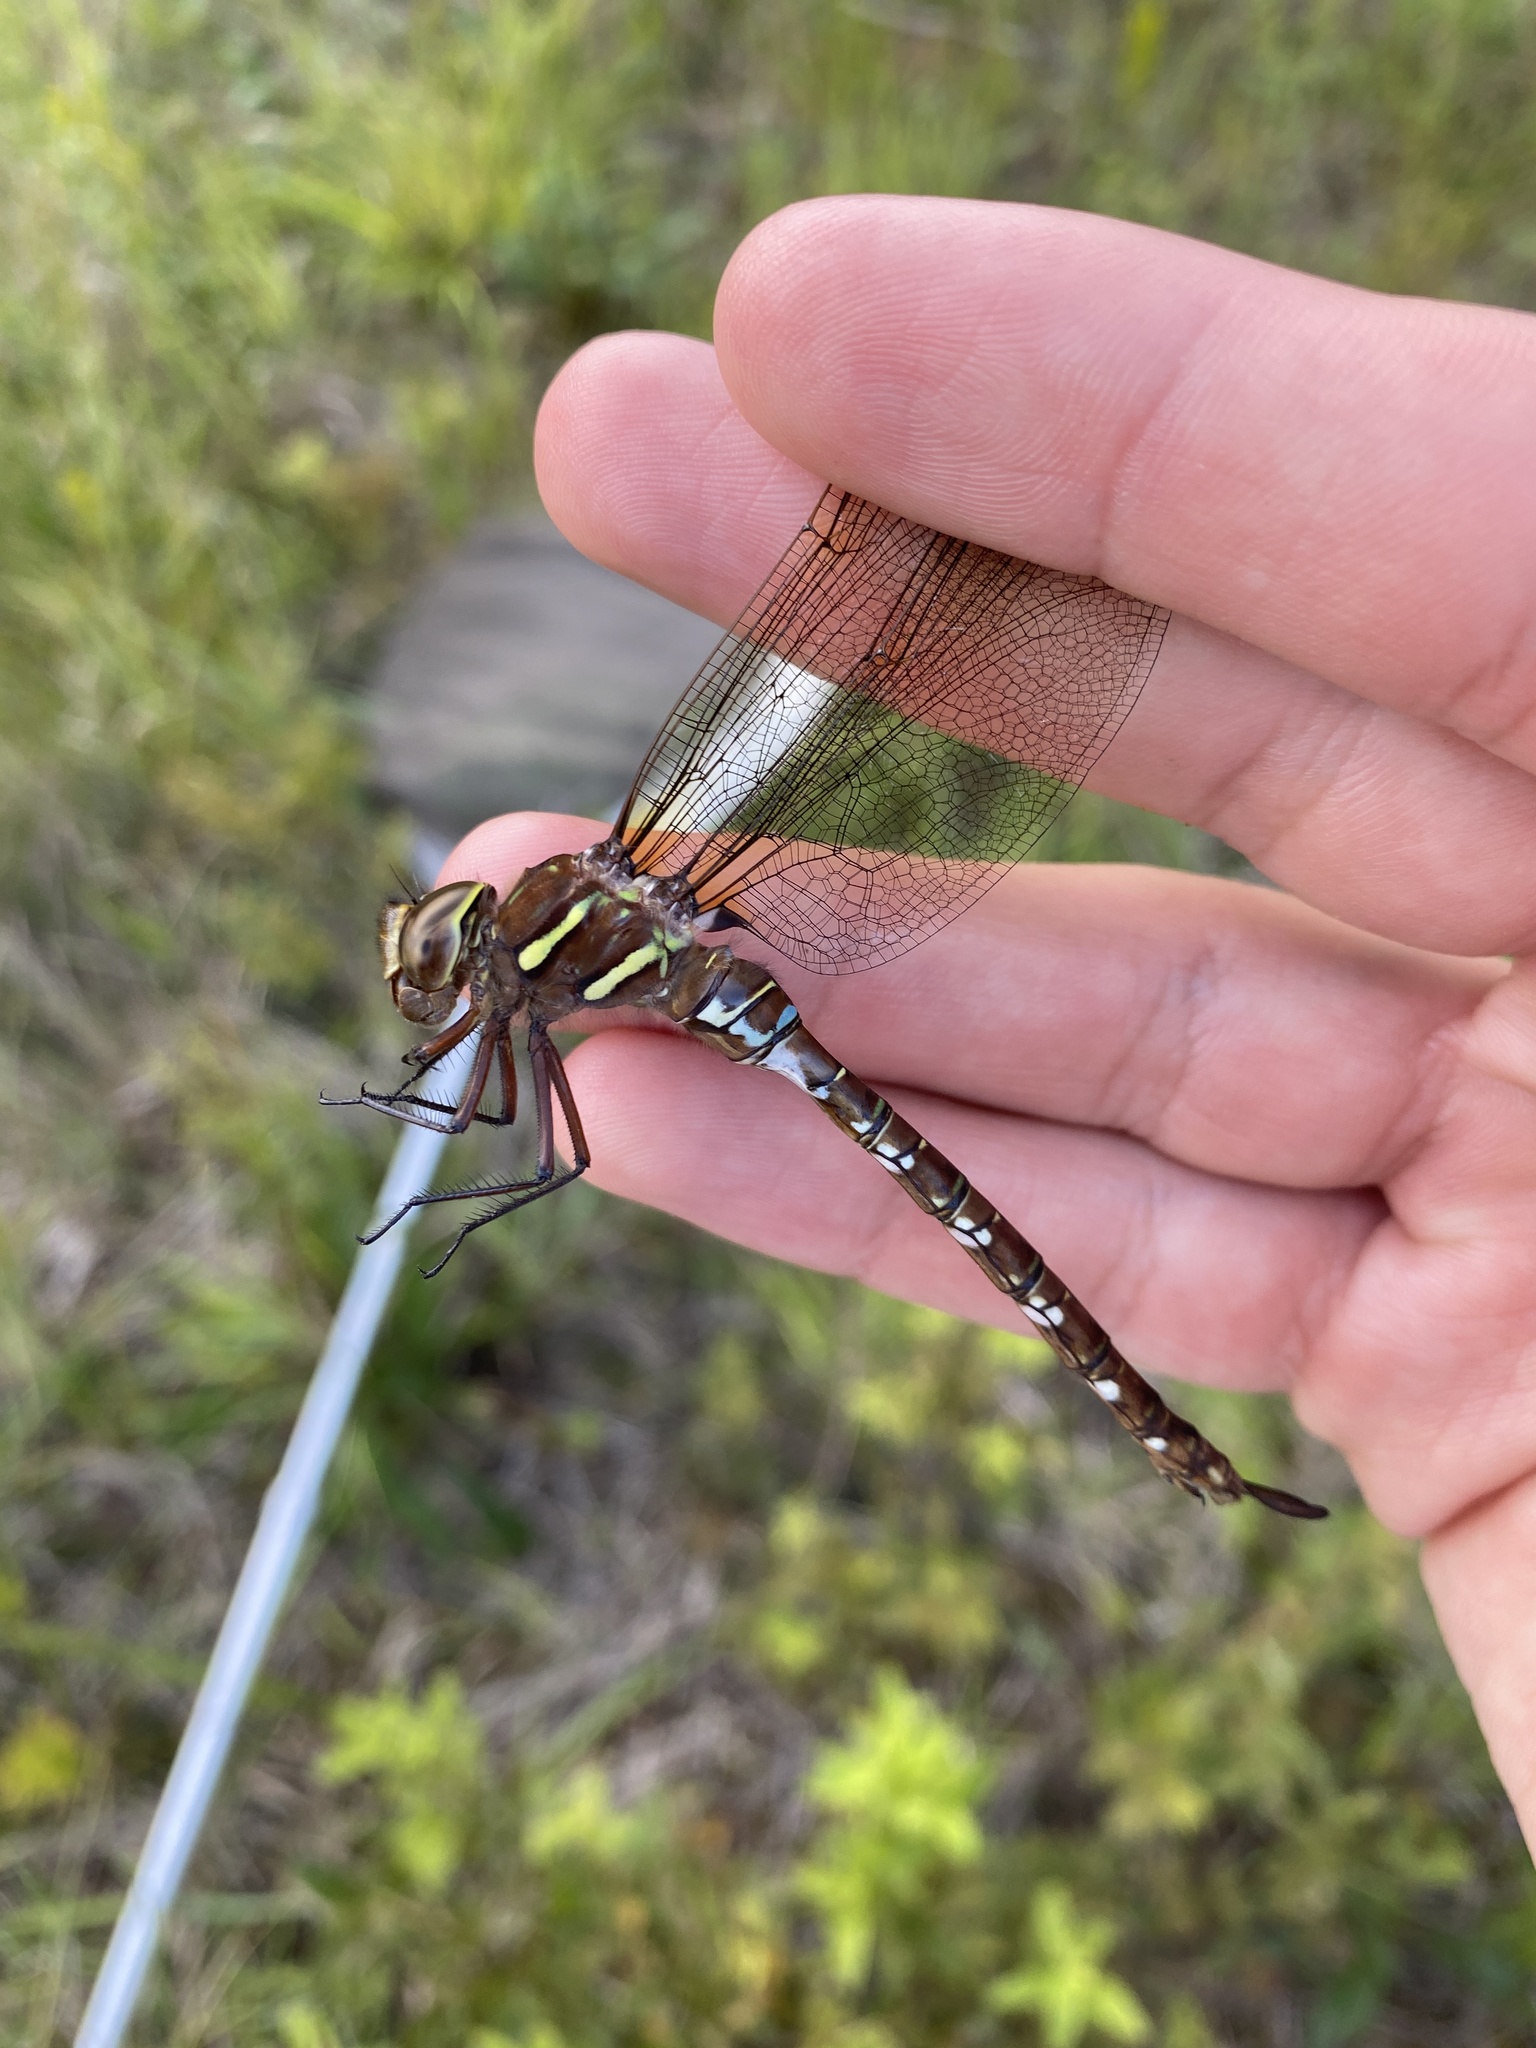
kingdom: Animalia
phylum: Arthropoda
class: Insecta
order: Odonata
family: Aeshnidae
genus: Aeshna
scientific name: Aeshna umbrosa
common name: Shadow darner
